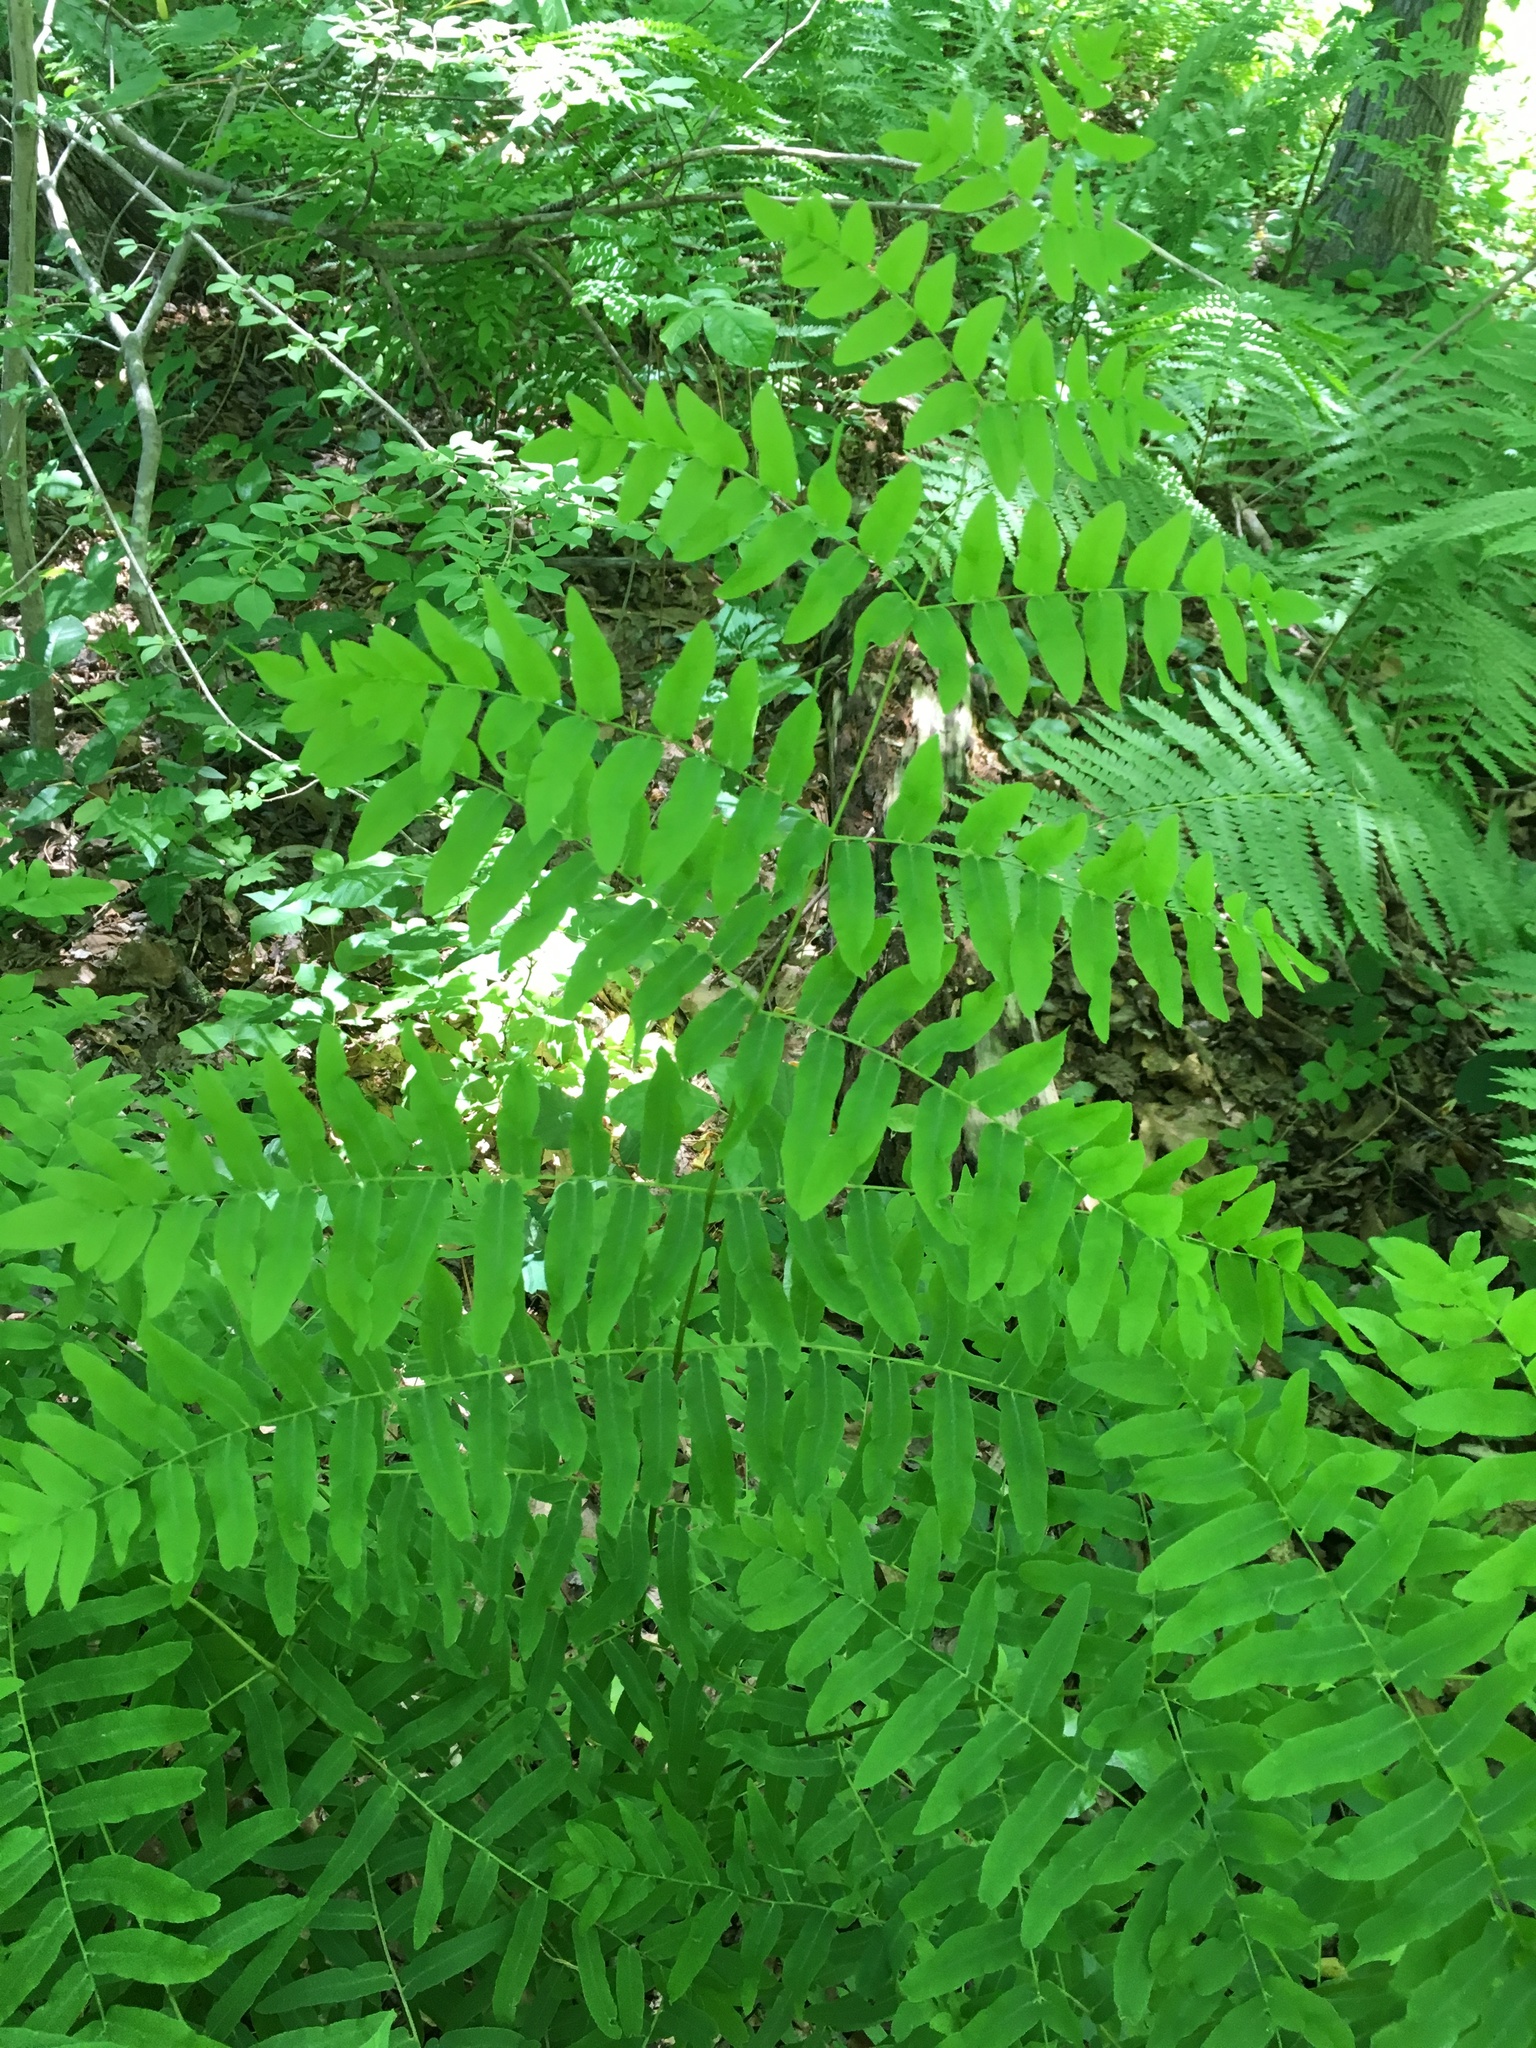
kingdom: Plantae
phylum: Tracheophyta
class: Polypodiopsida
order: Osmundales
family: Osmundaceae
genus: Osmunda
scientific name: Osmunda spectabilis
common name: American royal fern
